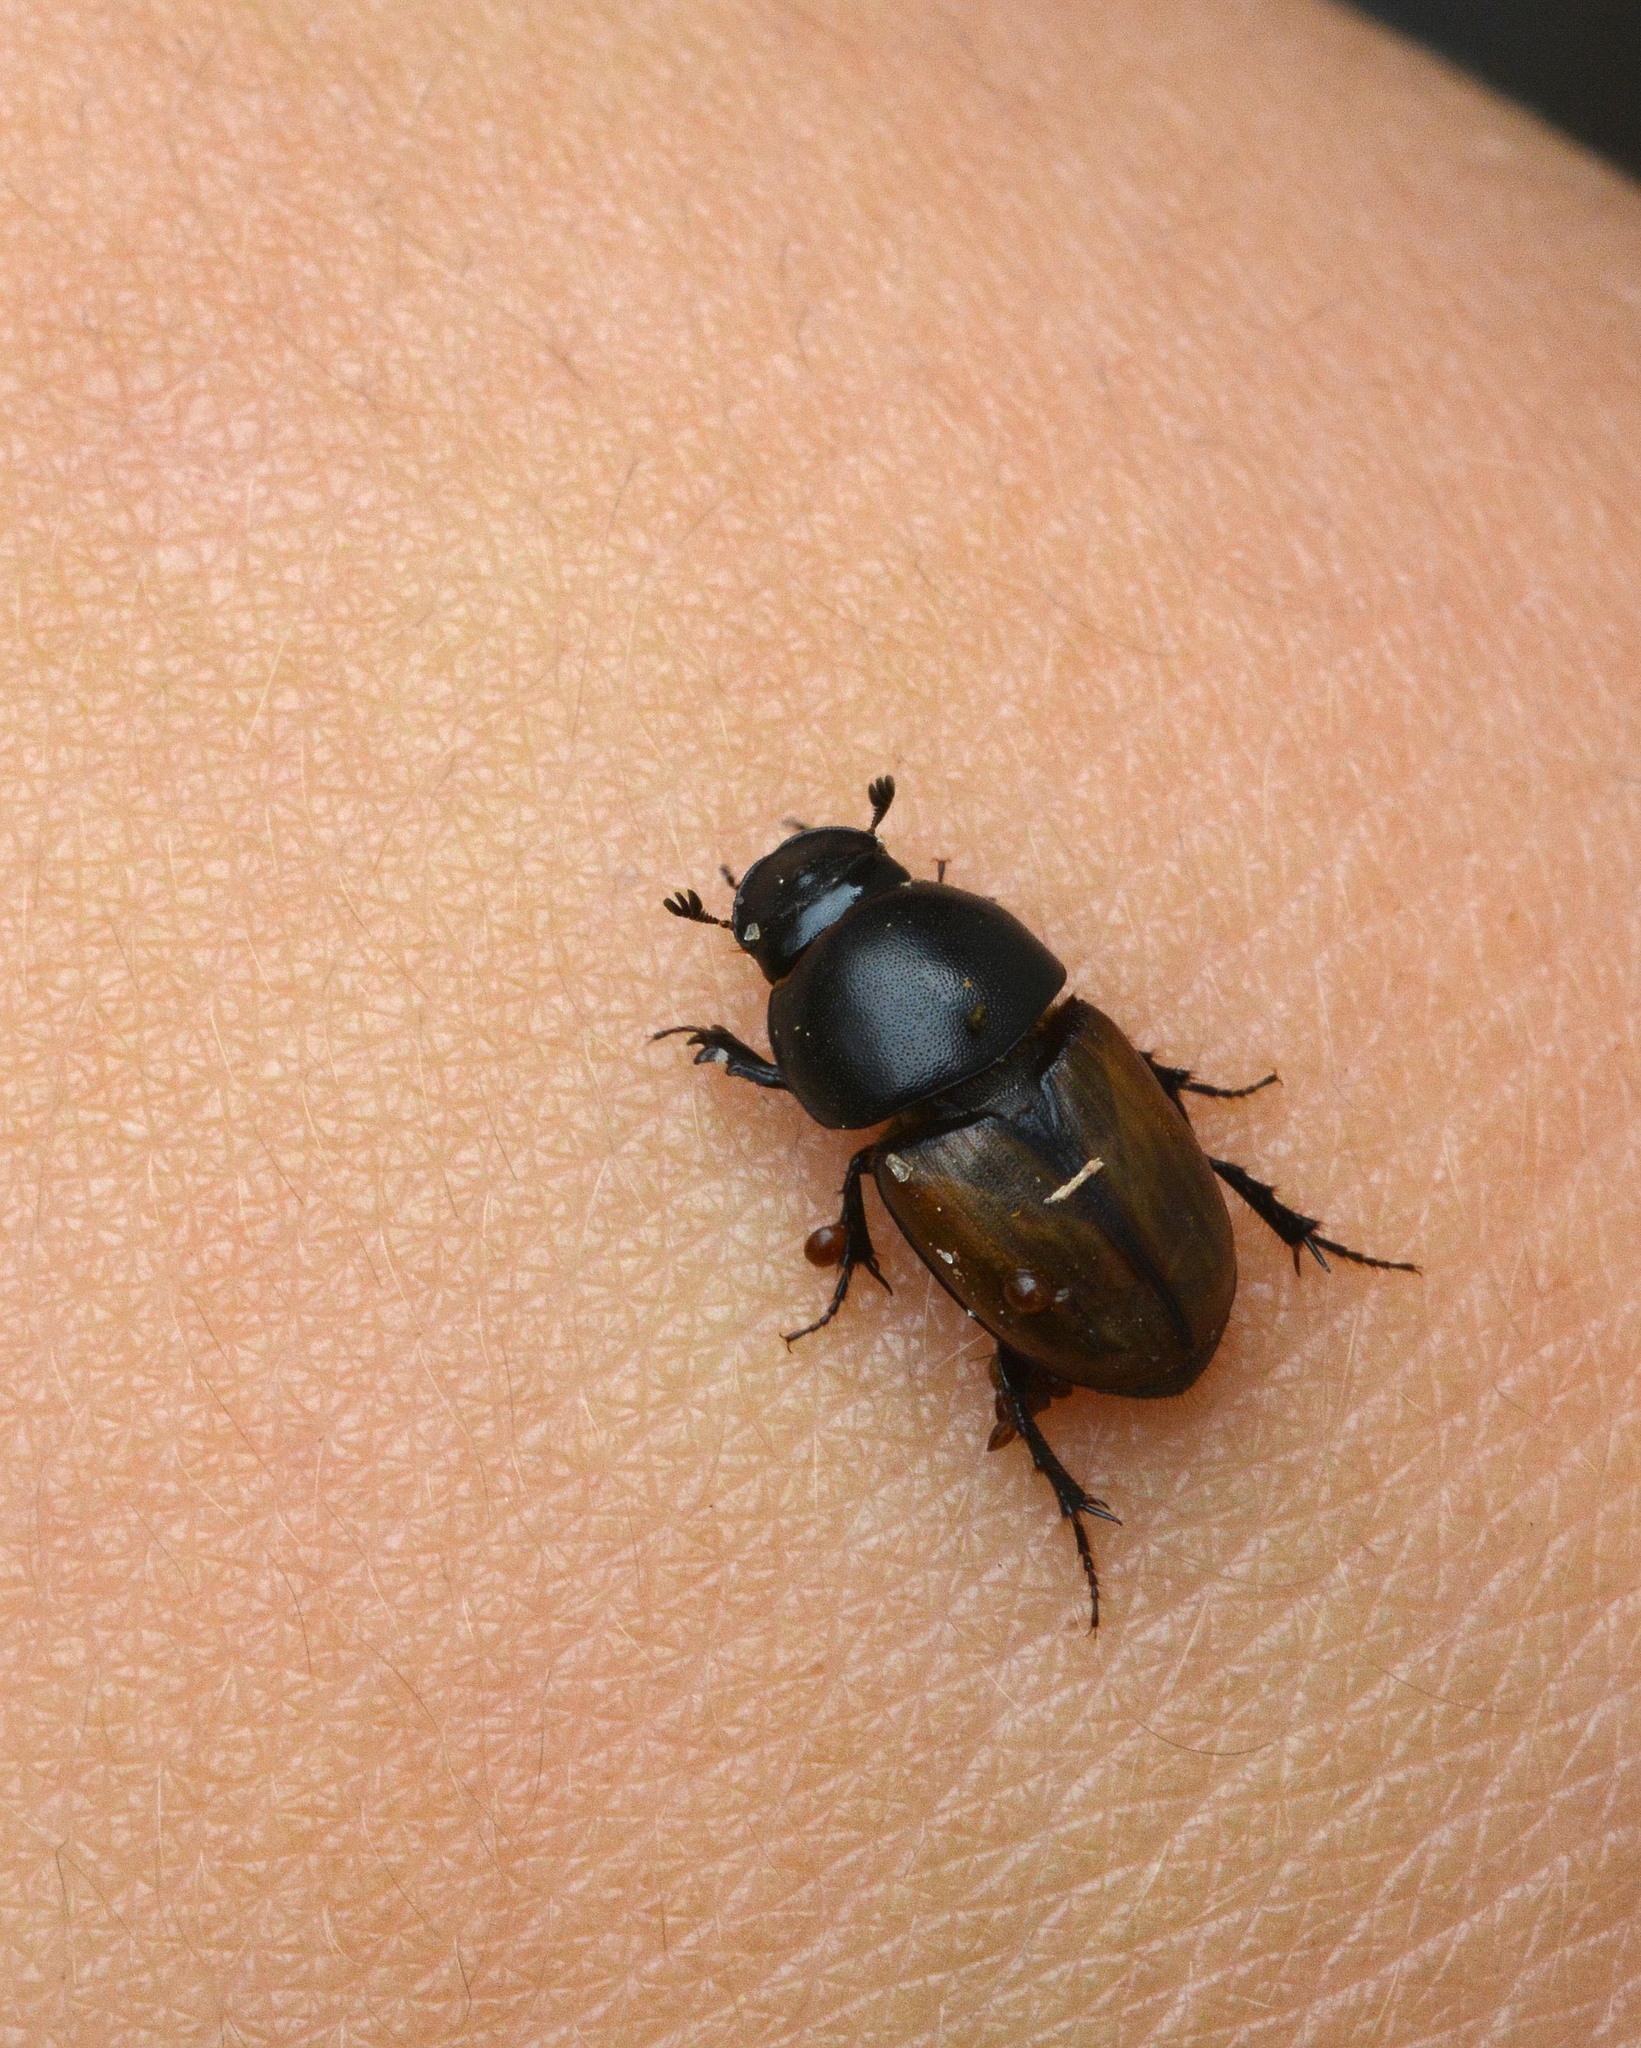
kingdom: Animalia
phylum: Arthropoda
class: Insecta
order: Coleoptera
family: Scarabaeidae
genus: Colobopterus
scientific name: Colobopterus erraticus
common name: Erratic small dung beetle
